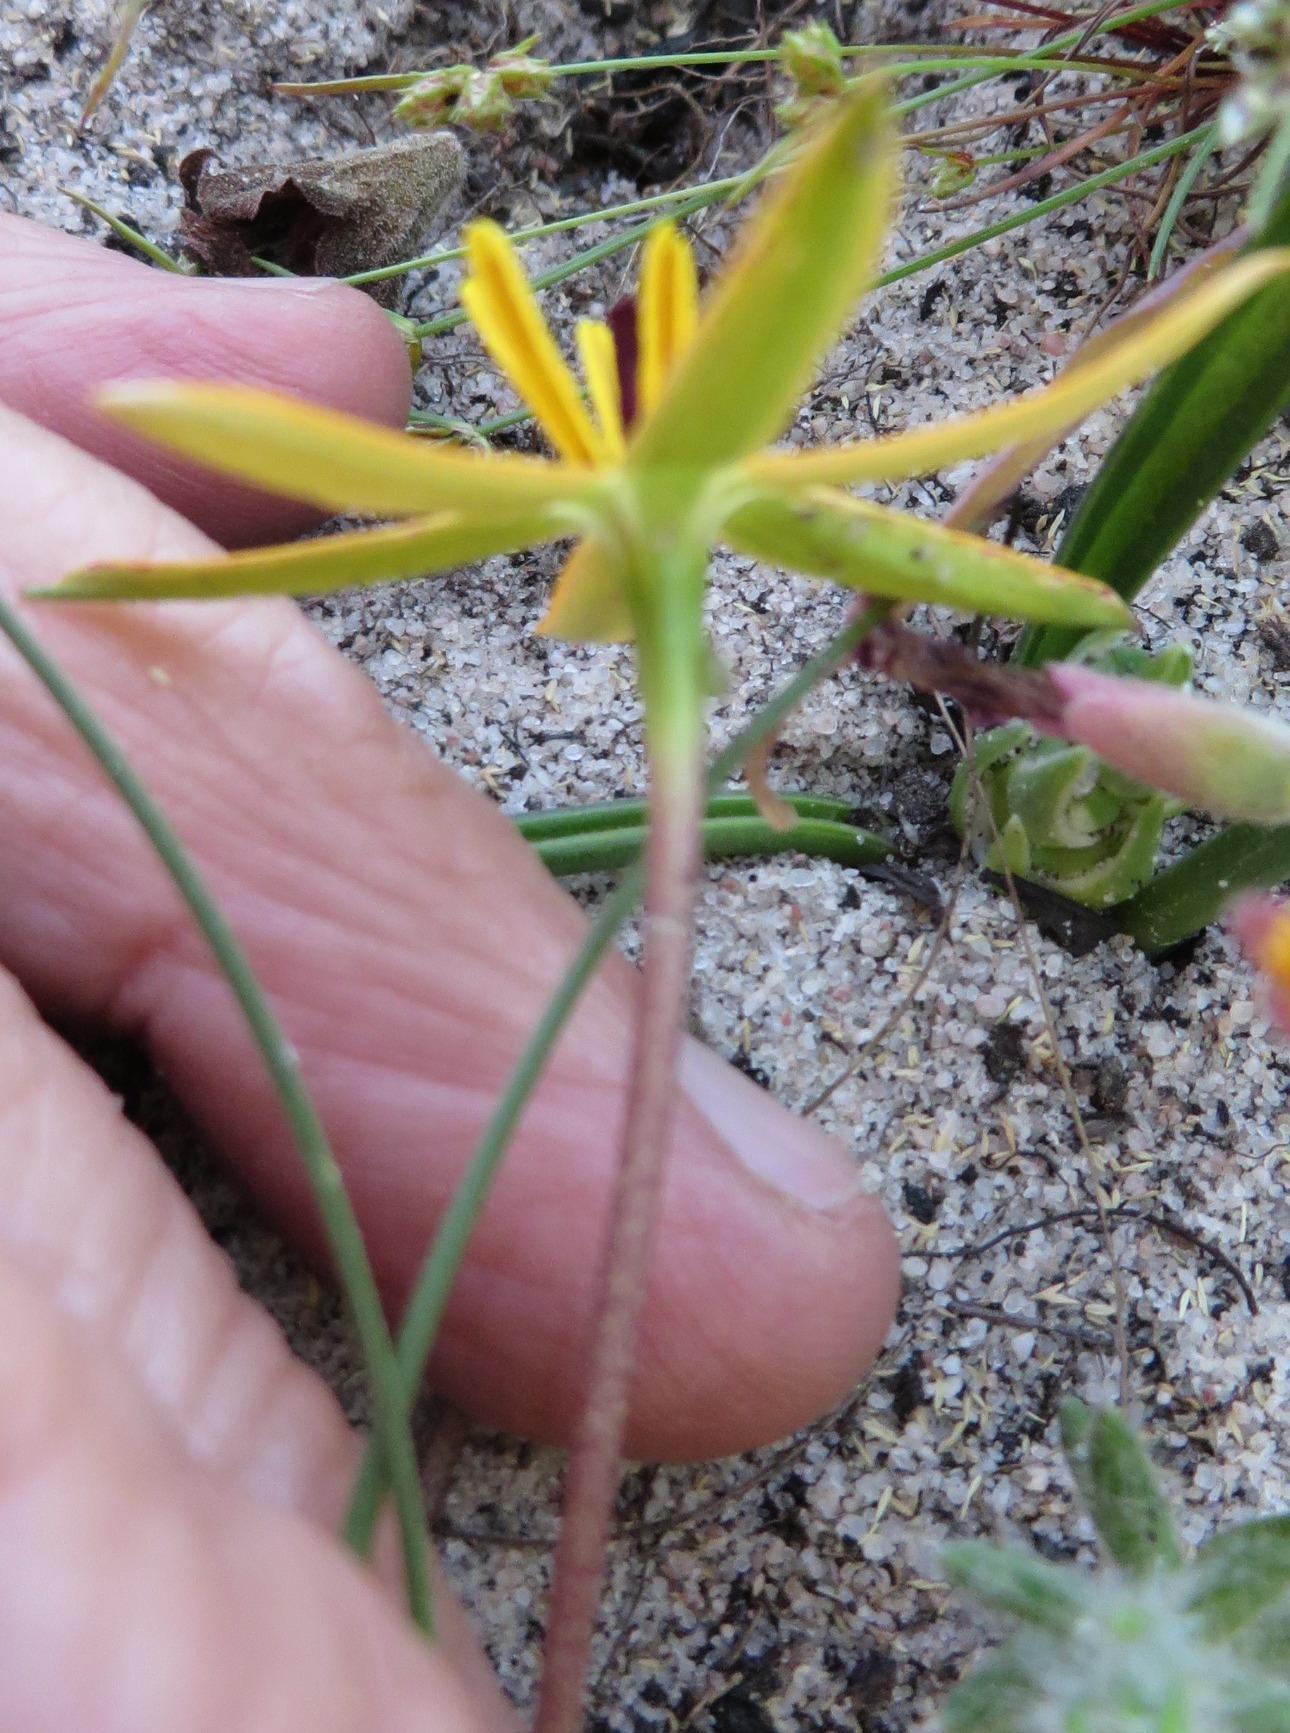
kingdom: Plantae
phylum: Tracheophyta
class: Liliopsida
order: Asparagales
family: Hypoxidaceae
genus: Pauridia
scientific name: Pauridia linearis
